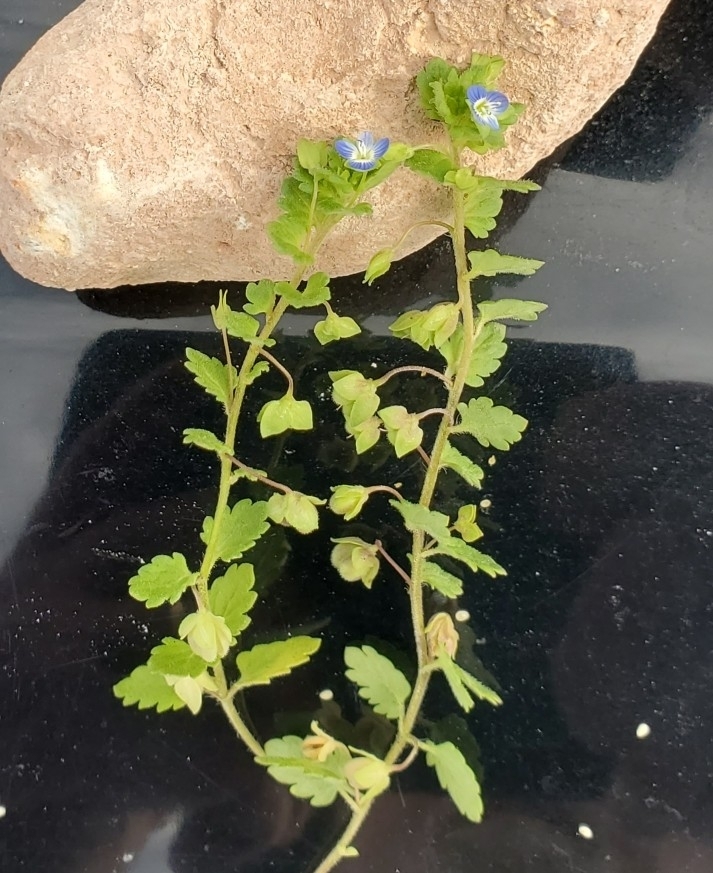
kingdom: Plantae
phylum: Tracheophyta
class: Magnoliopsida
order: Lamiales
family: Plantaginaceae
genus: Veronica
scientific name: Veronica polita
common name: Grey field-speedwell
